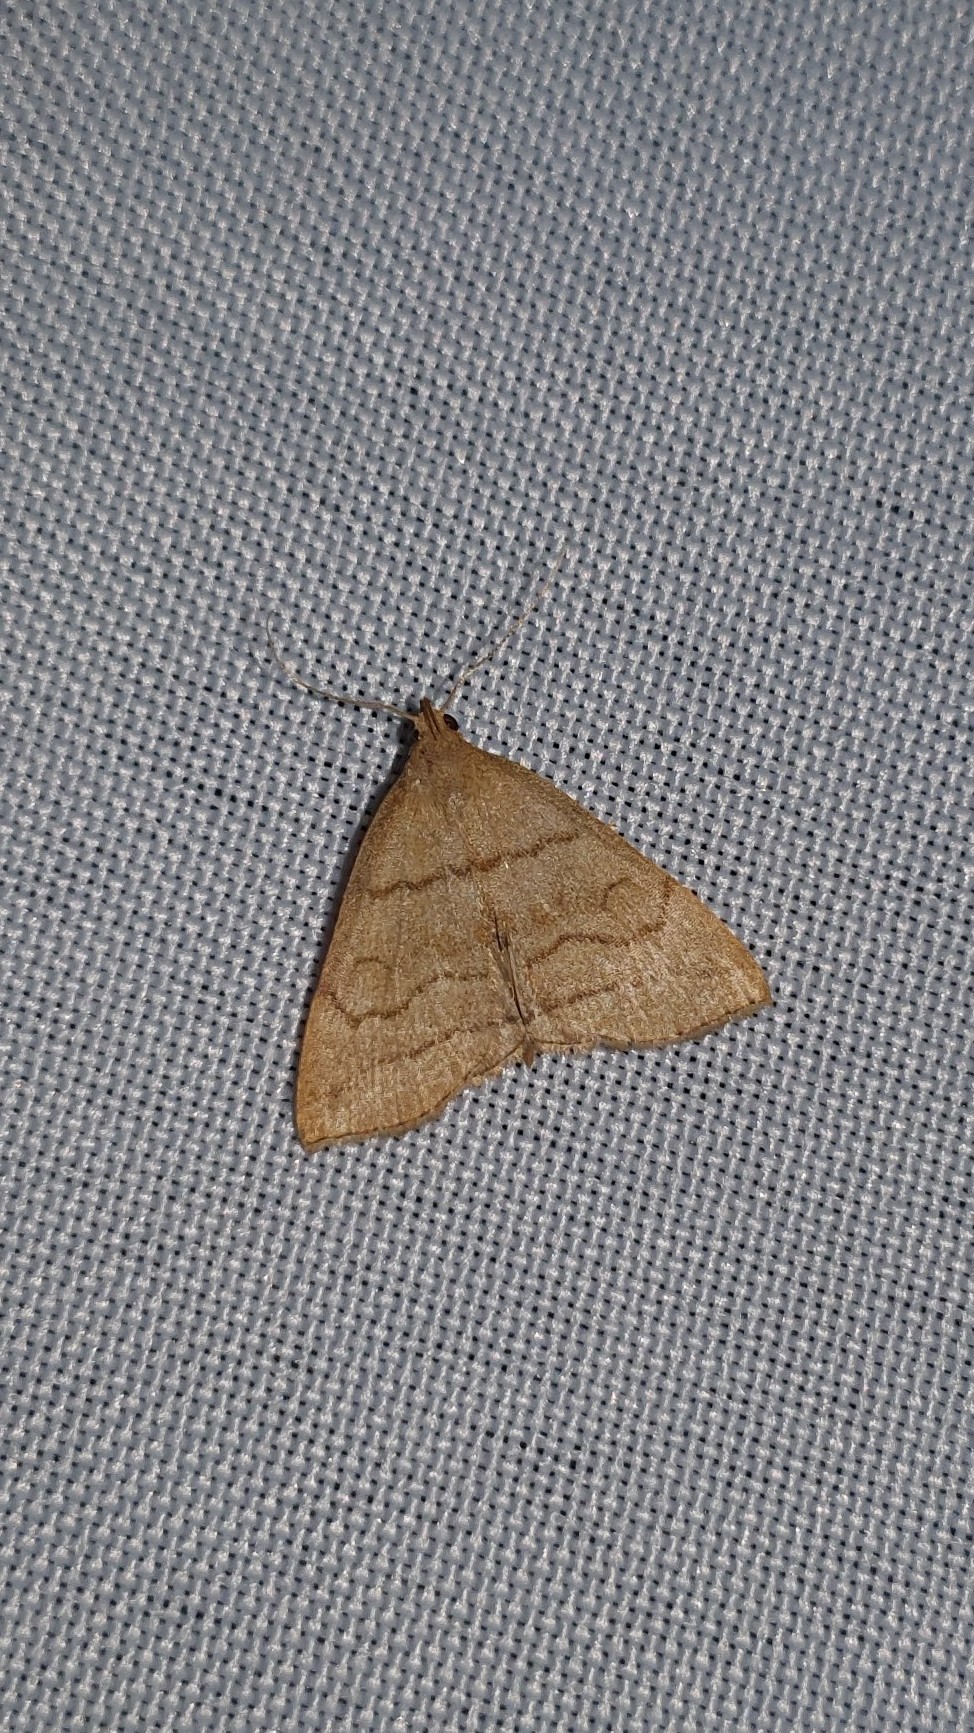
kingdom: Animalia
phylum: Arthropoda
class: Insecta
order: Lepidoptera
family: Erebidae
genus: Herminia
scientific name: Herminia tarsicrinalis
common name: Shaded fan-foot
